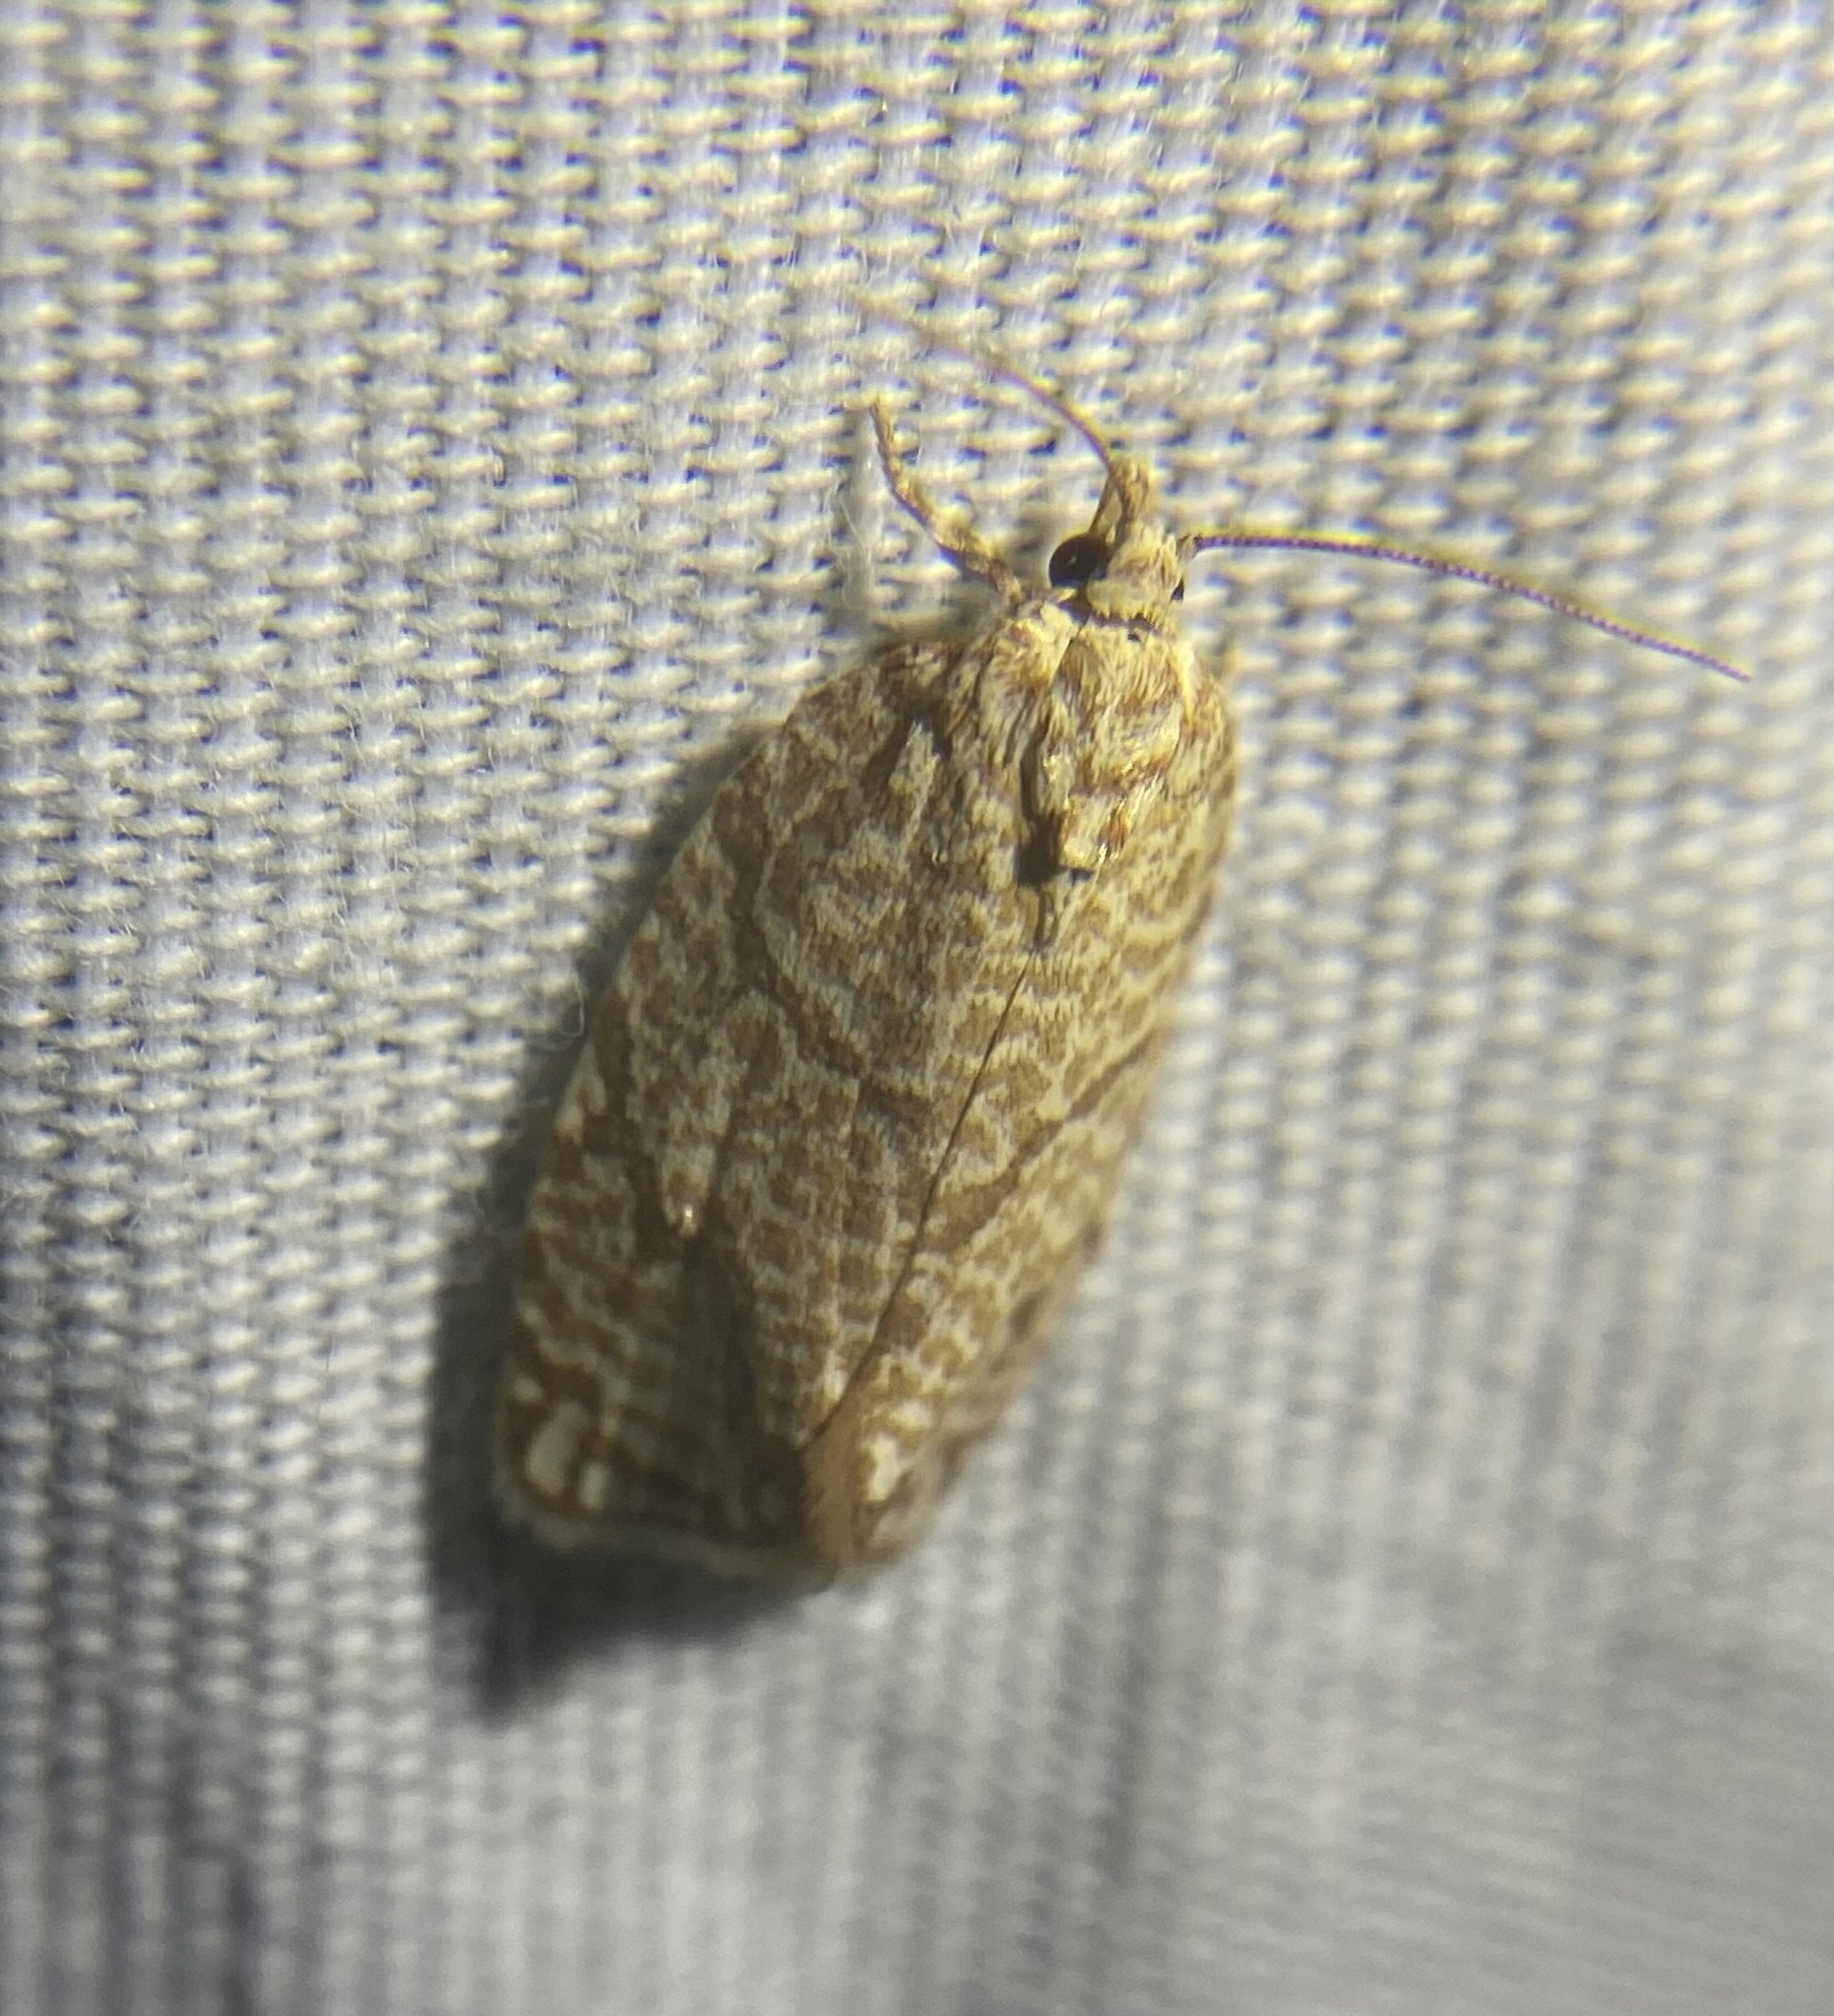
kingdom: Animalia
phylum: Arthropoda
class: Insecta
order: Lepidoptera
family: Tortricidae
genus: Argyrotaenia
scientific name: Argyrotaenia quercifoliana
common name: Yellow-winged oak leafroller moth
